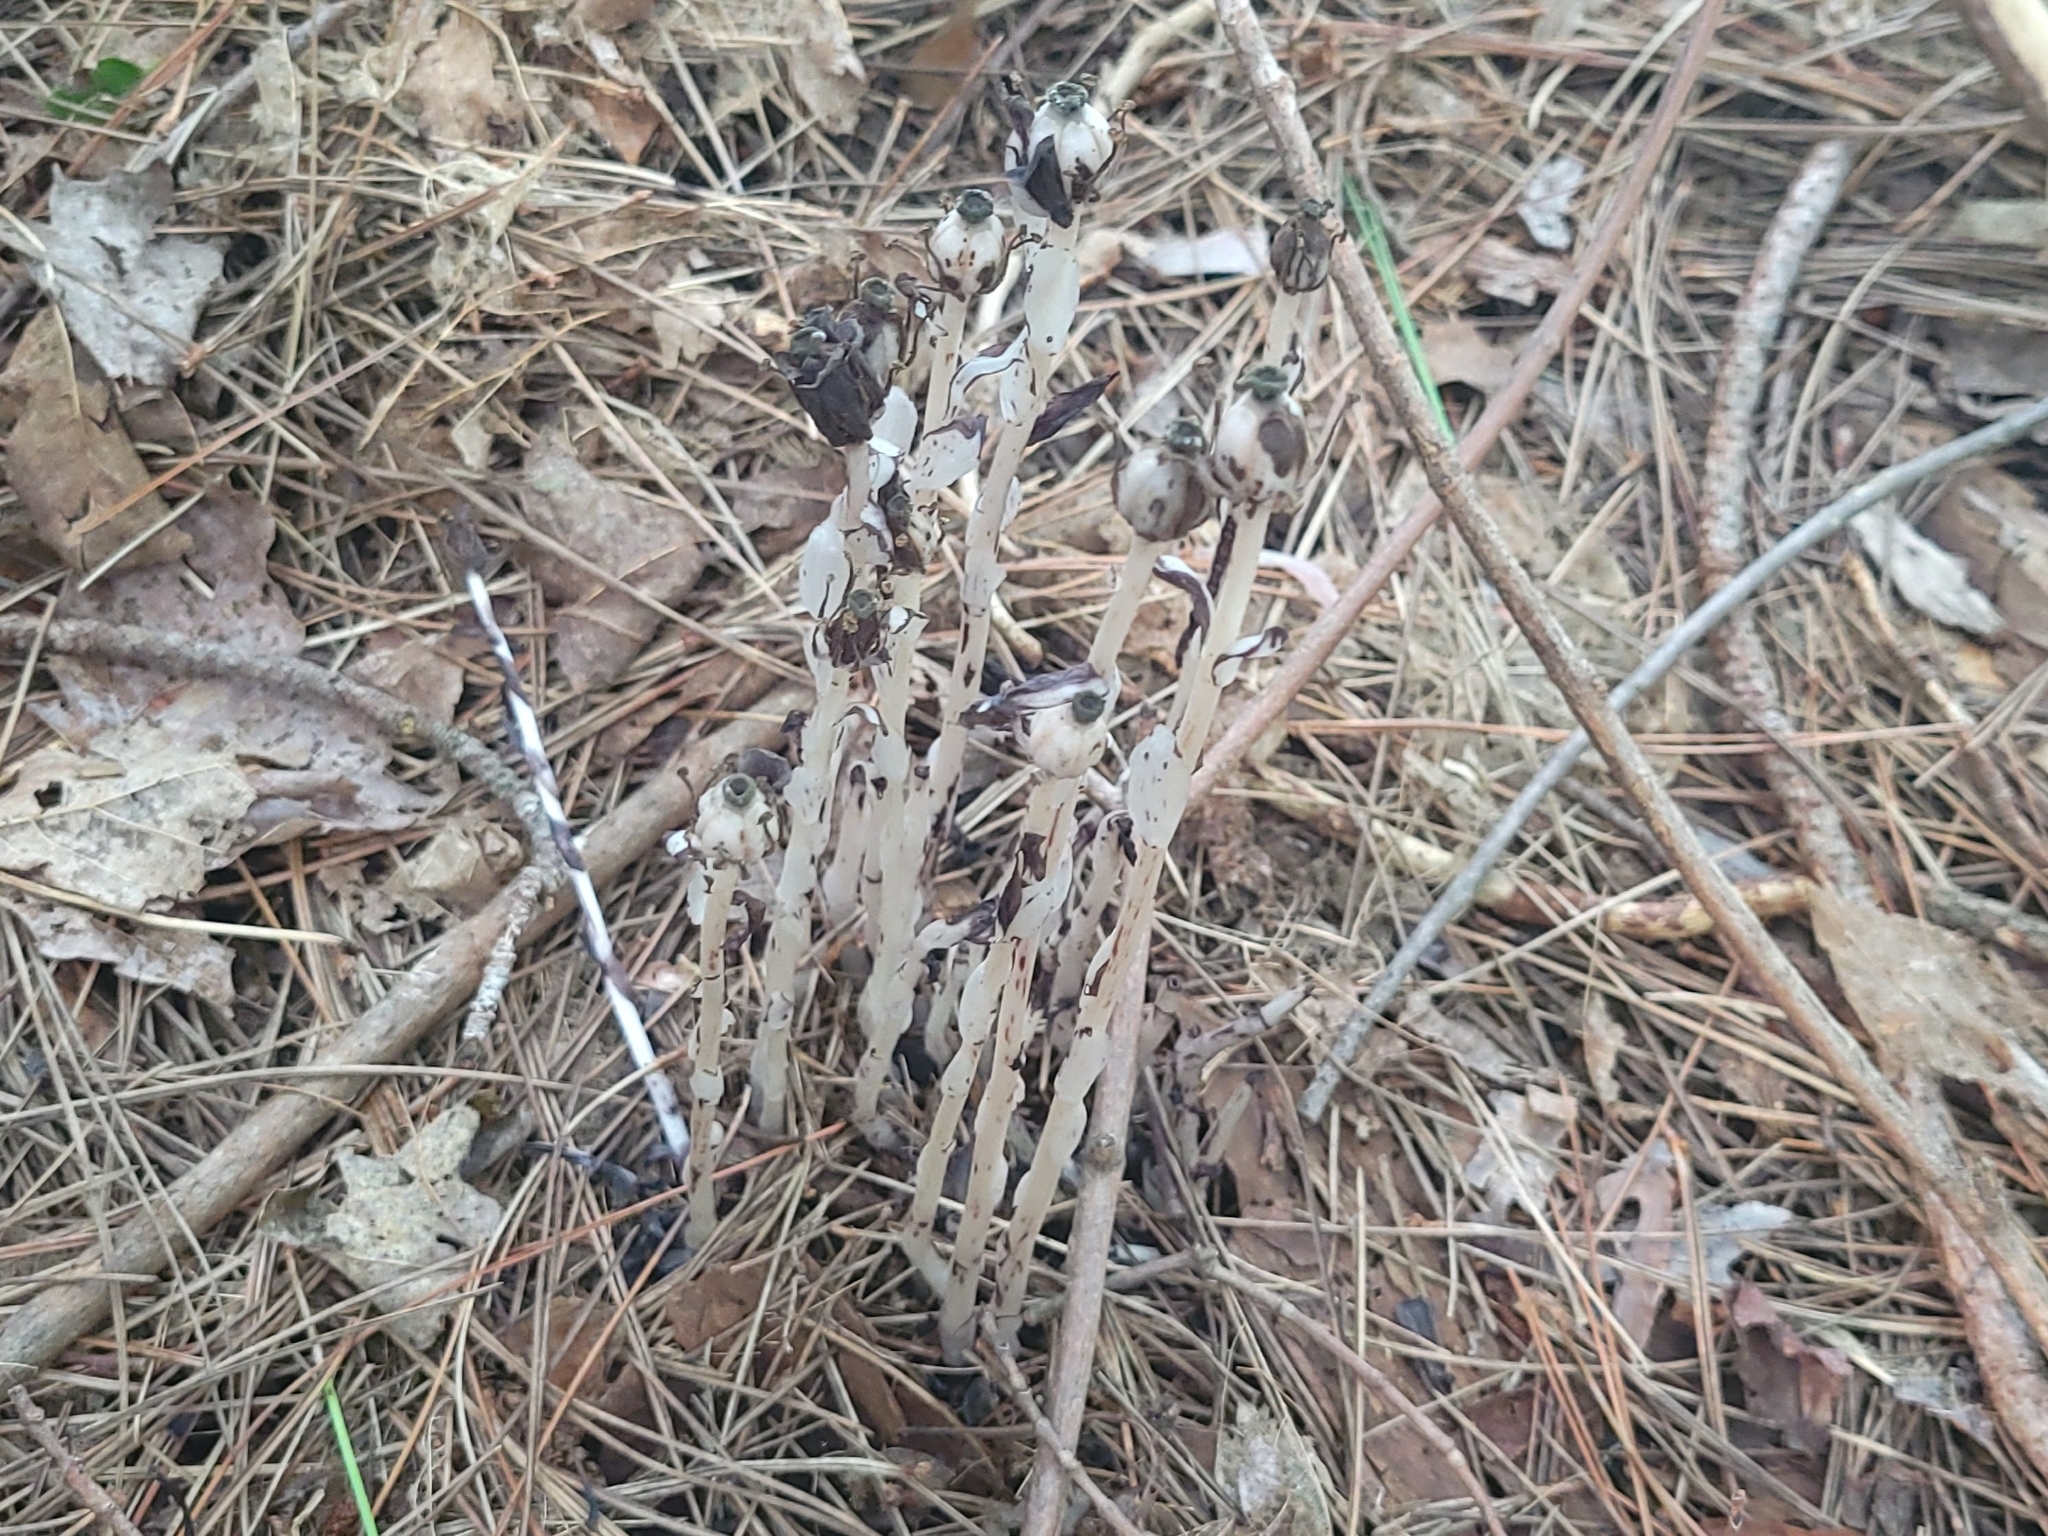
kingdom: Plantae
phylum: Tracheophyta
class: Magnoliopsida
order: Ericales
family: Ericaceae
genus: Monotropa
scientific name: Monotropa uniflora
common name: Convulsion root
